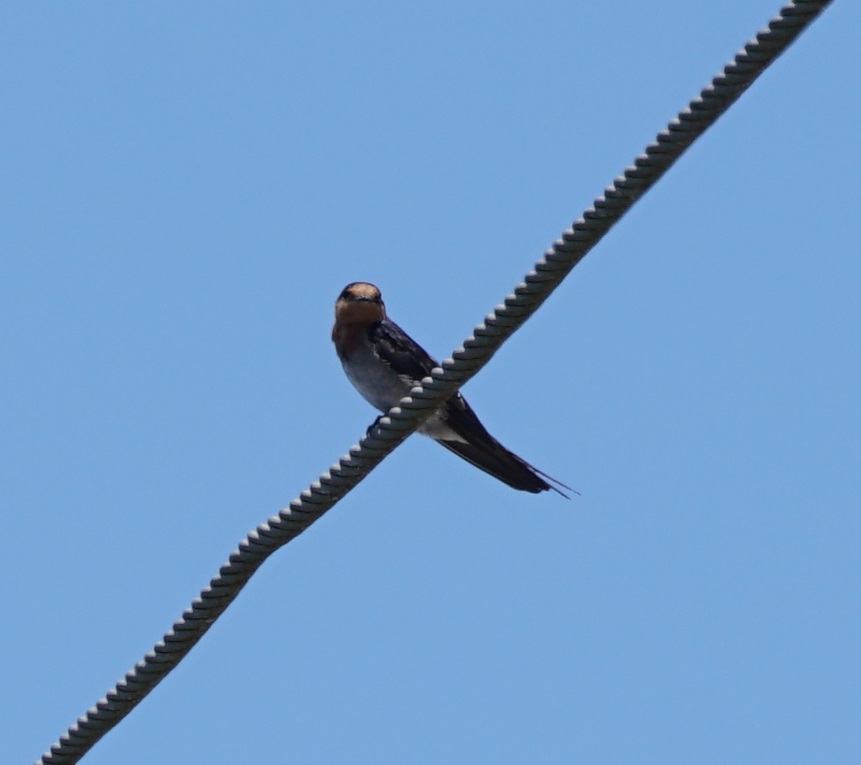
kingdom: Animalia
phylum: Chordata
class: Aves
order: Passeriformes
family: Hirundinidae
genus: Hirundo
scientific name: Hirundo neoxena
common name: Welcome swallow
